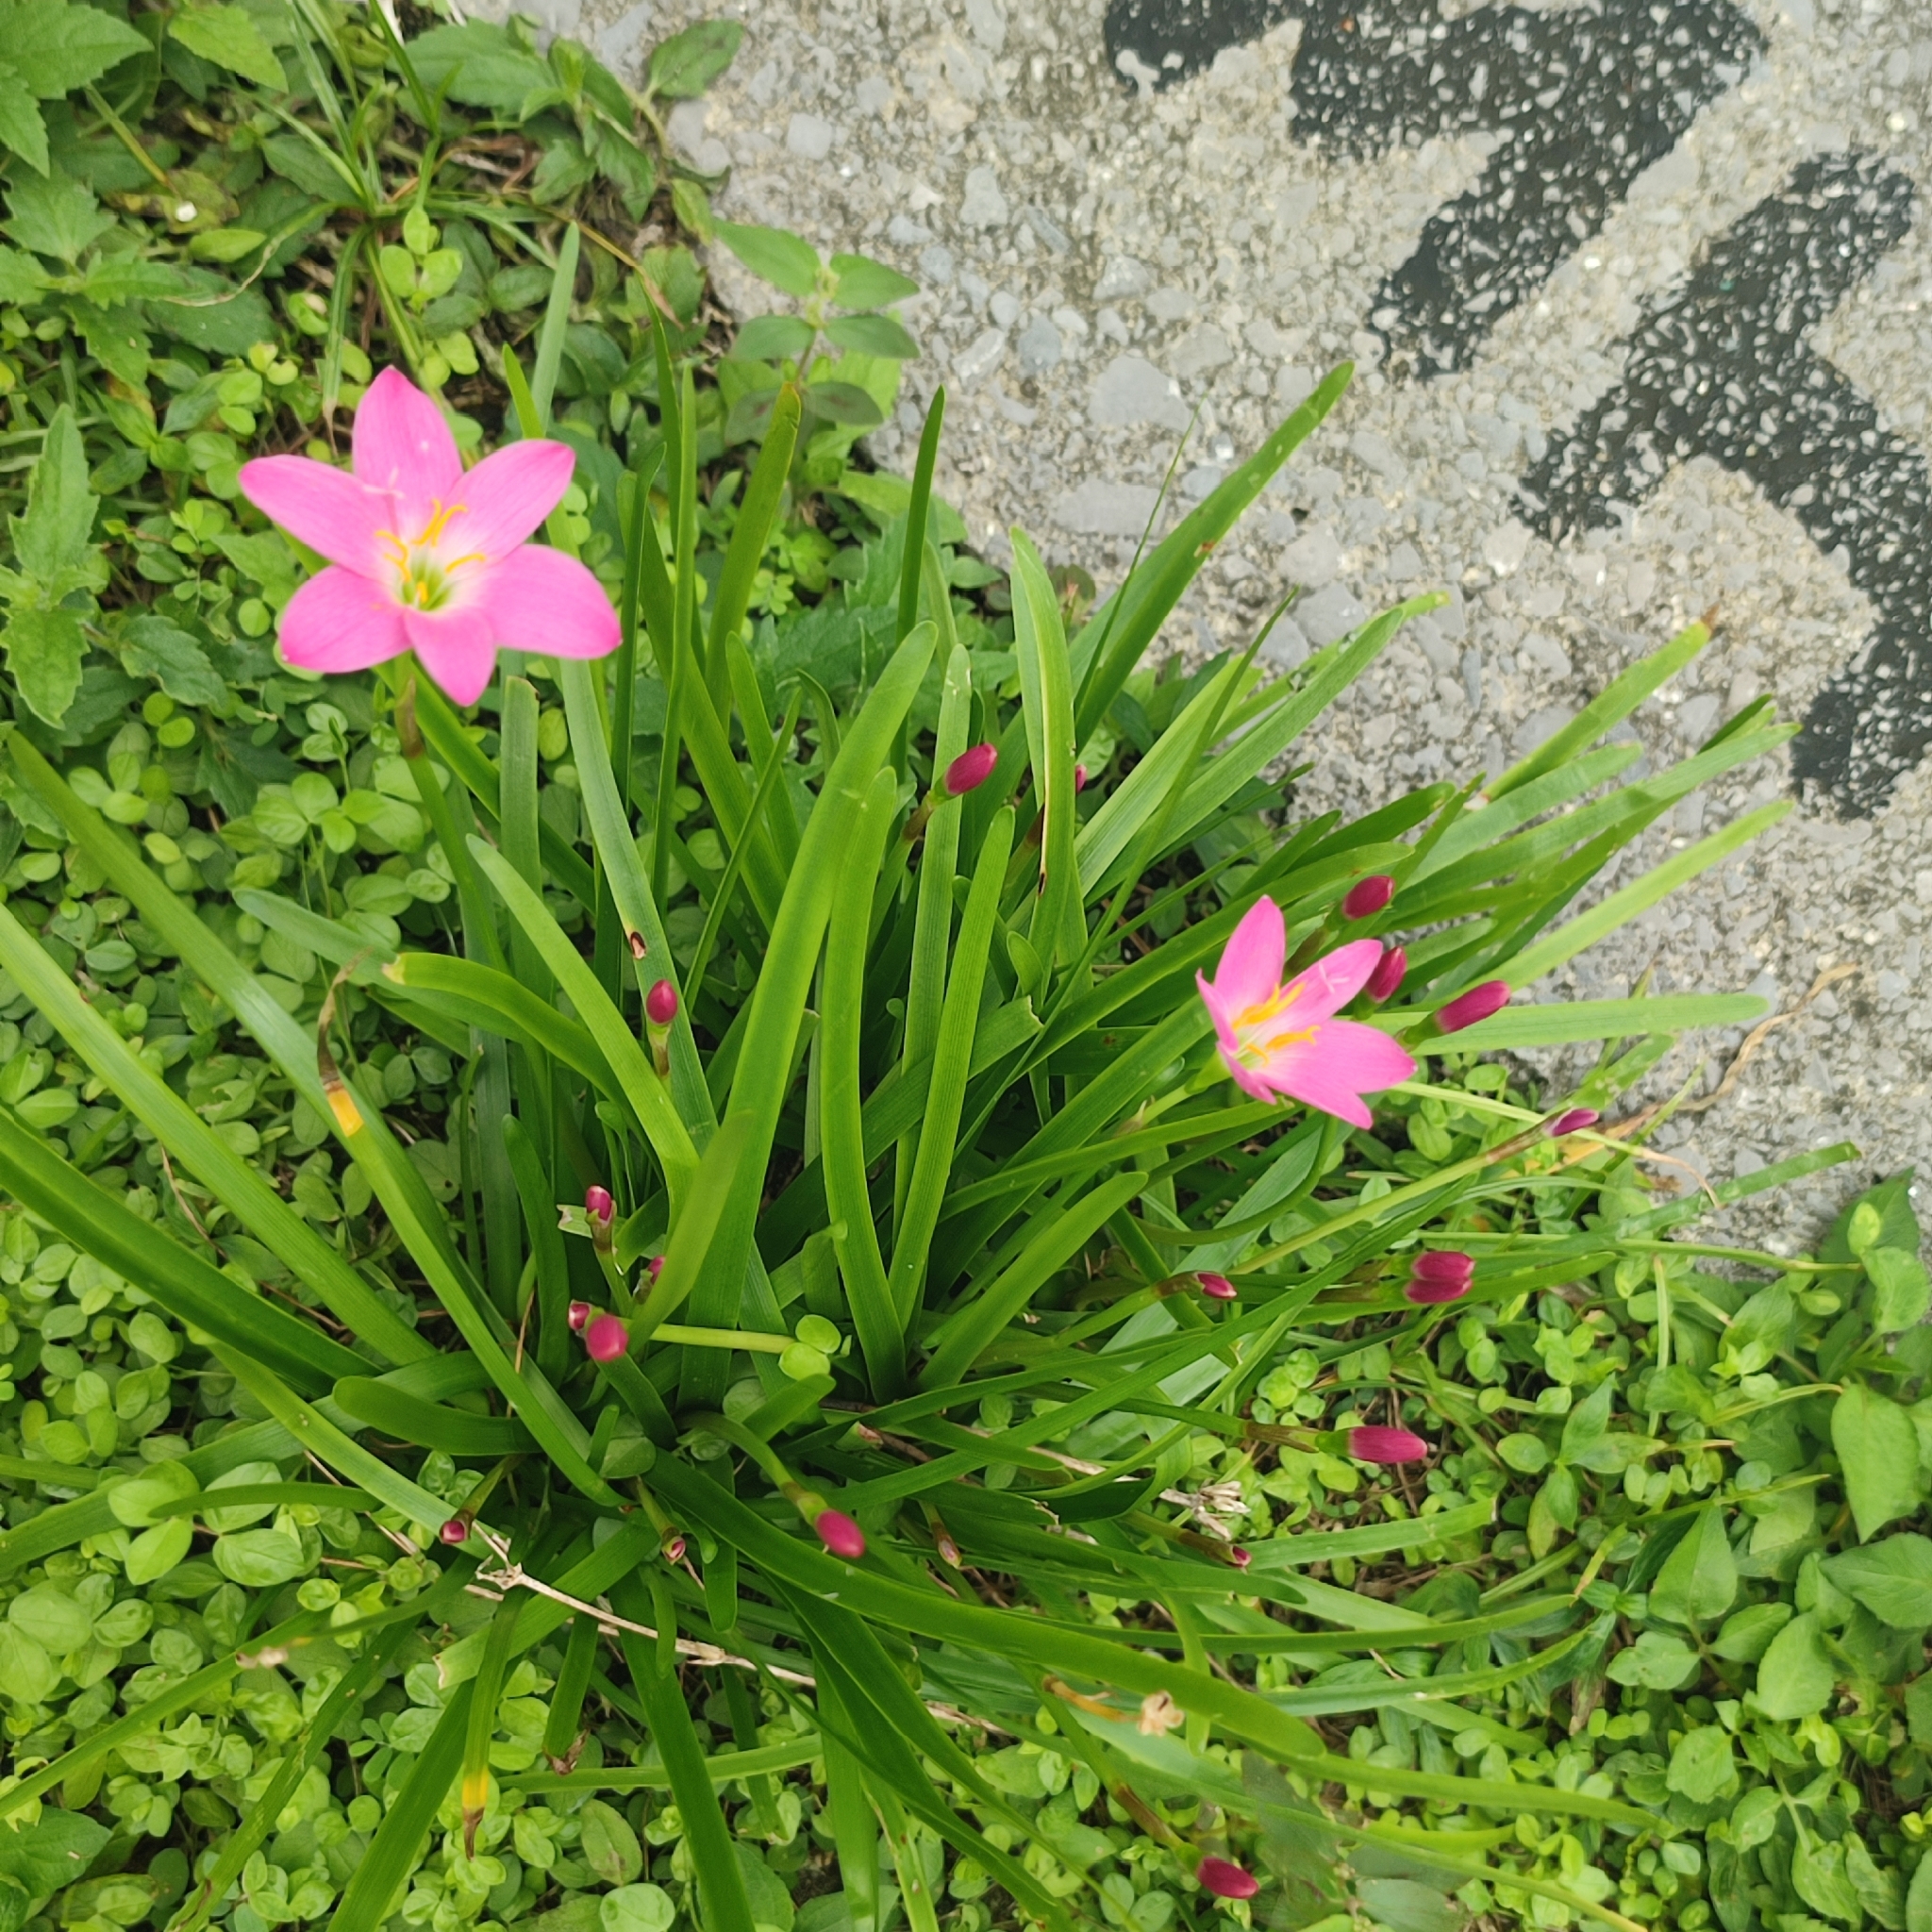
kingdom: Plantae
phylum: Tracheophyta
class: Liliopsida
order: Asparagales
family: Amaryllidaceae
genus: Zephyranthes
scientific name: Zephyranthes rosea
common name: Cuban zephyrlily
